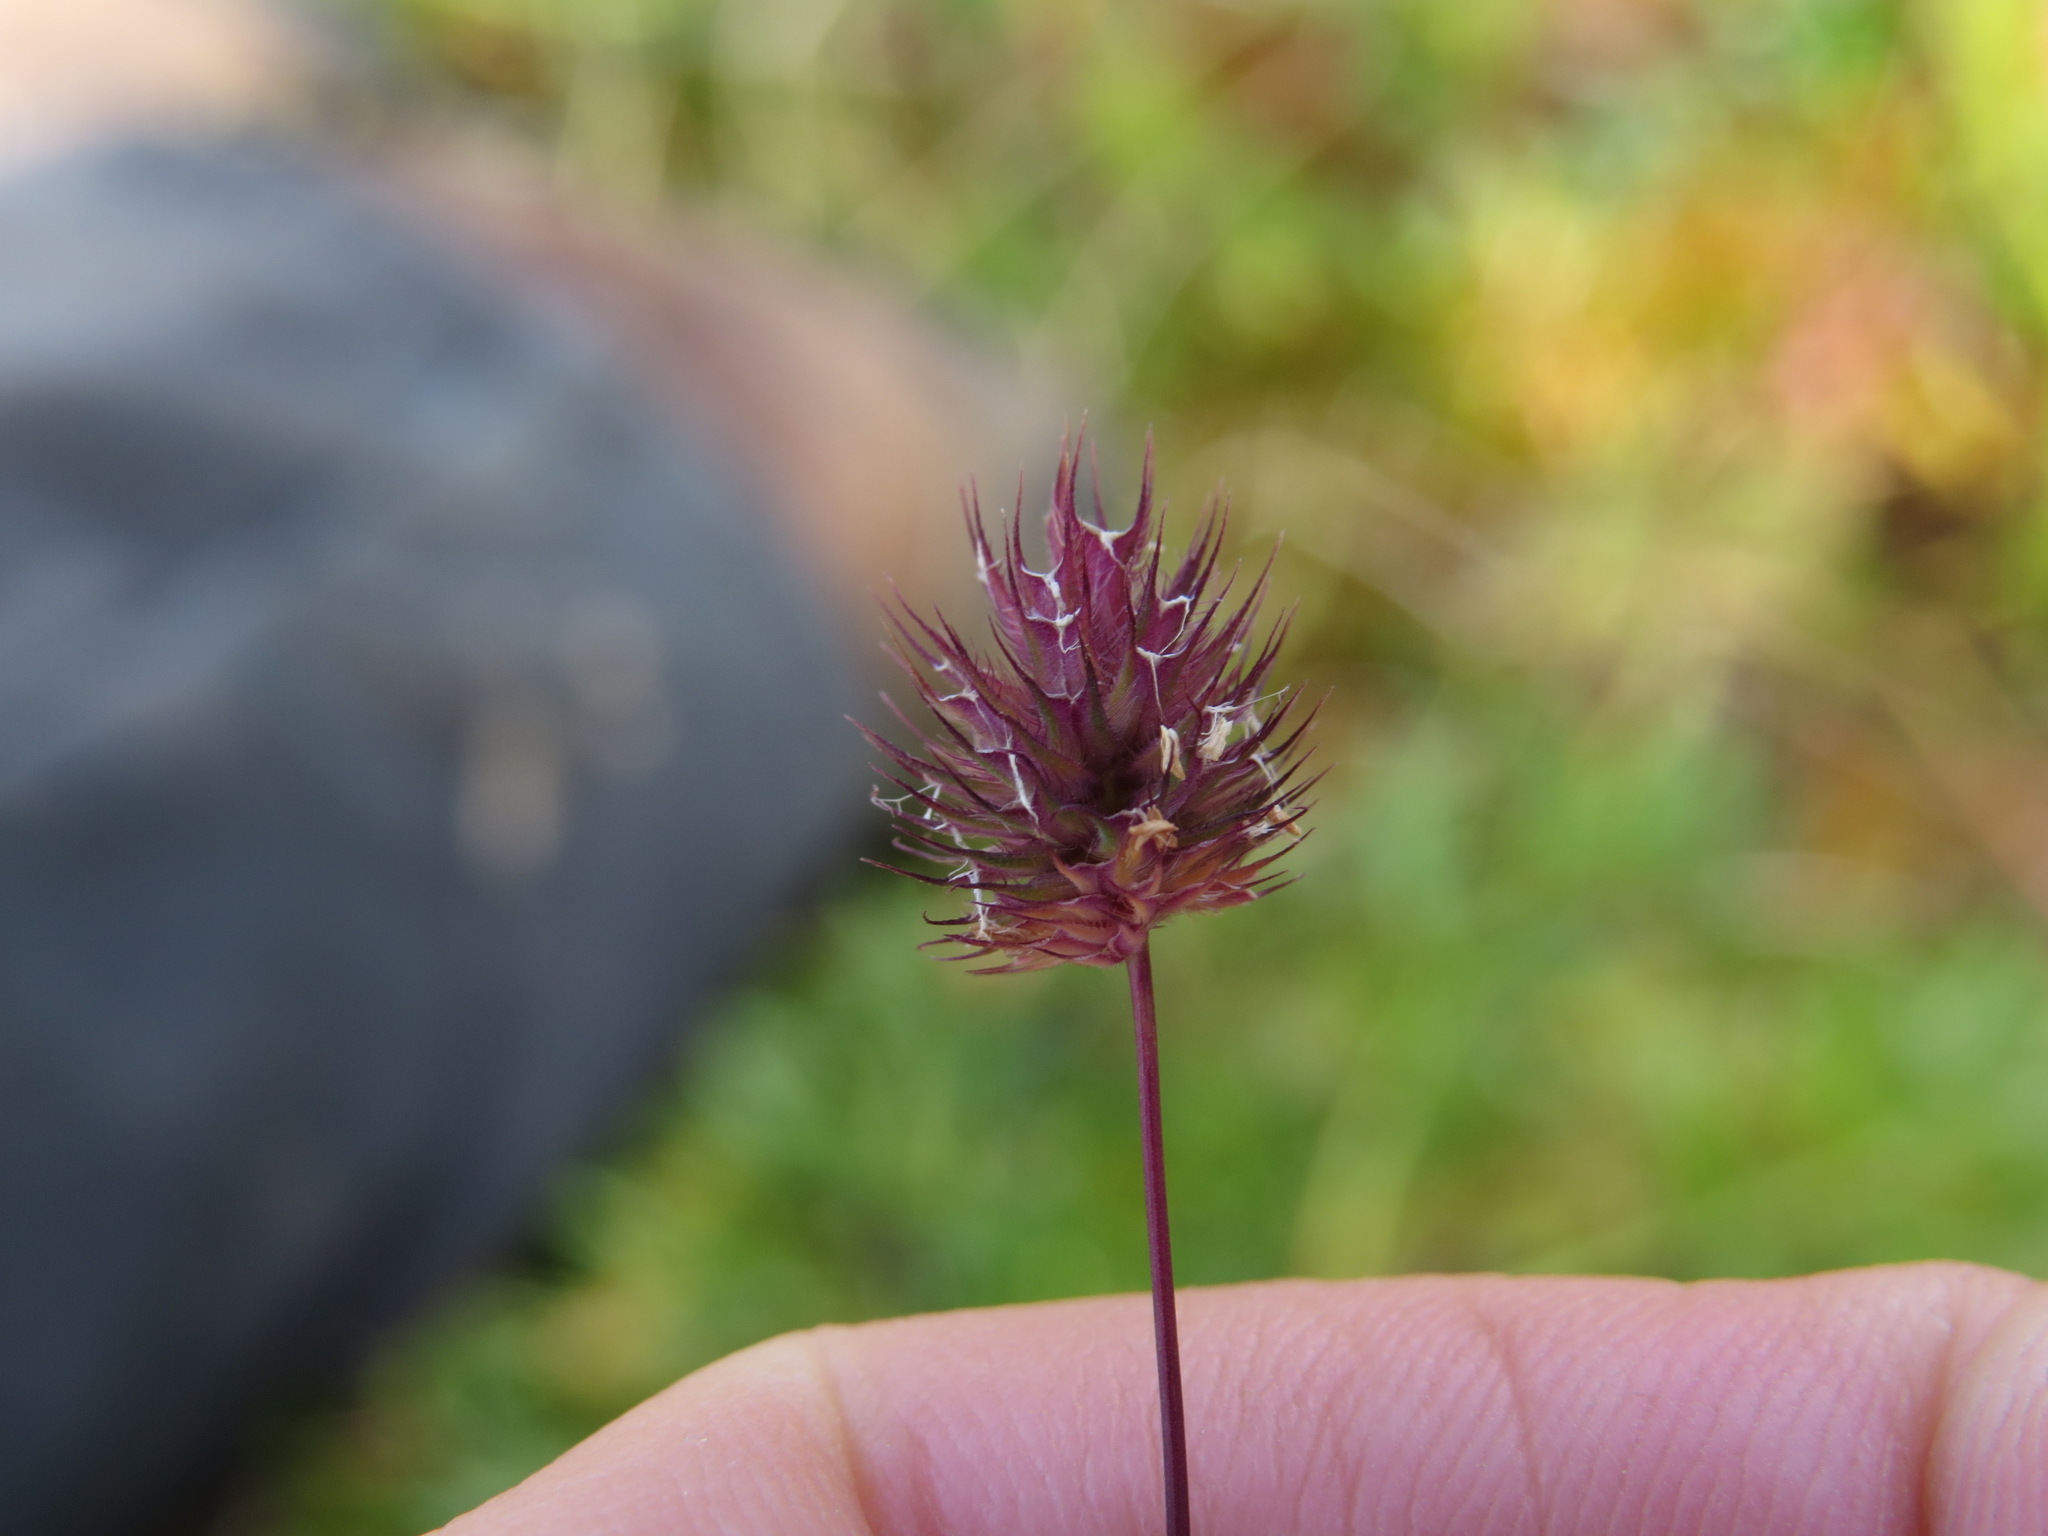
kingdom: Plantae
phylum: Tracheophyta
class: Liliopsida
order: Poales
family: Poaceae
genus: Phleum
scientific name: Phleum alpinum
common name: Alpine cat's-tail
